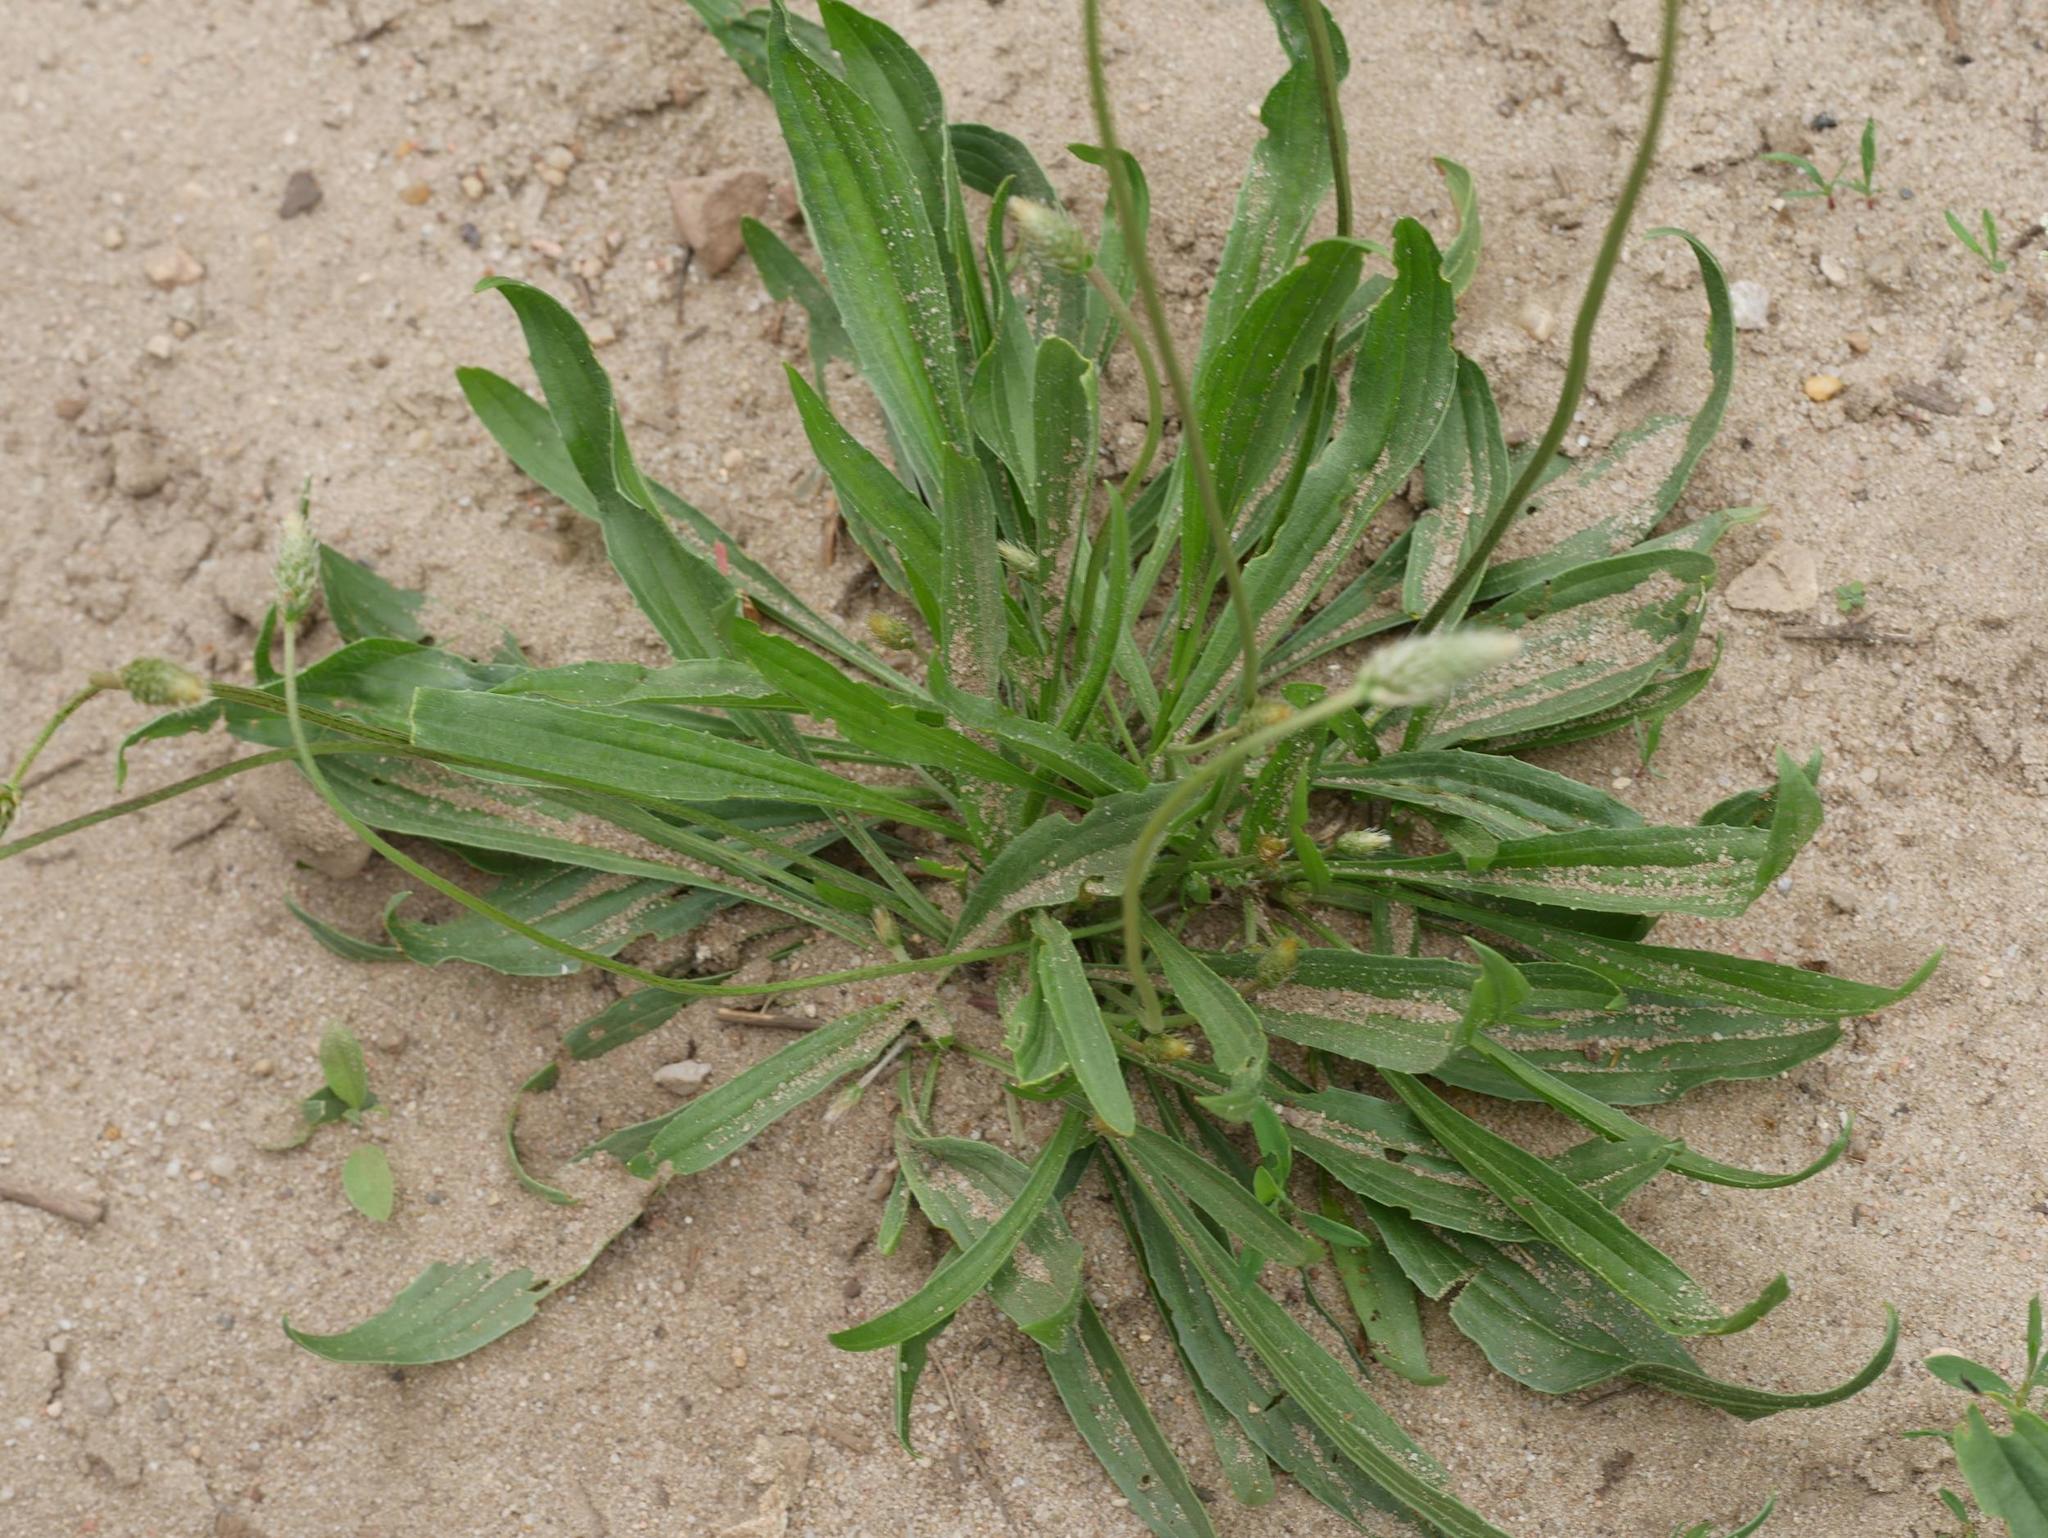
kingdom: Plantae
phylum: Tracheophyta
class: Magnoliopsida
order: Lamiales
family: Plantaginaceae
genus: Plantago
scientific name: Plantago lanceolata
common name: Ribwort plantain
